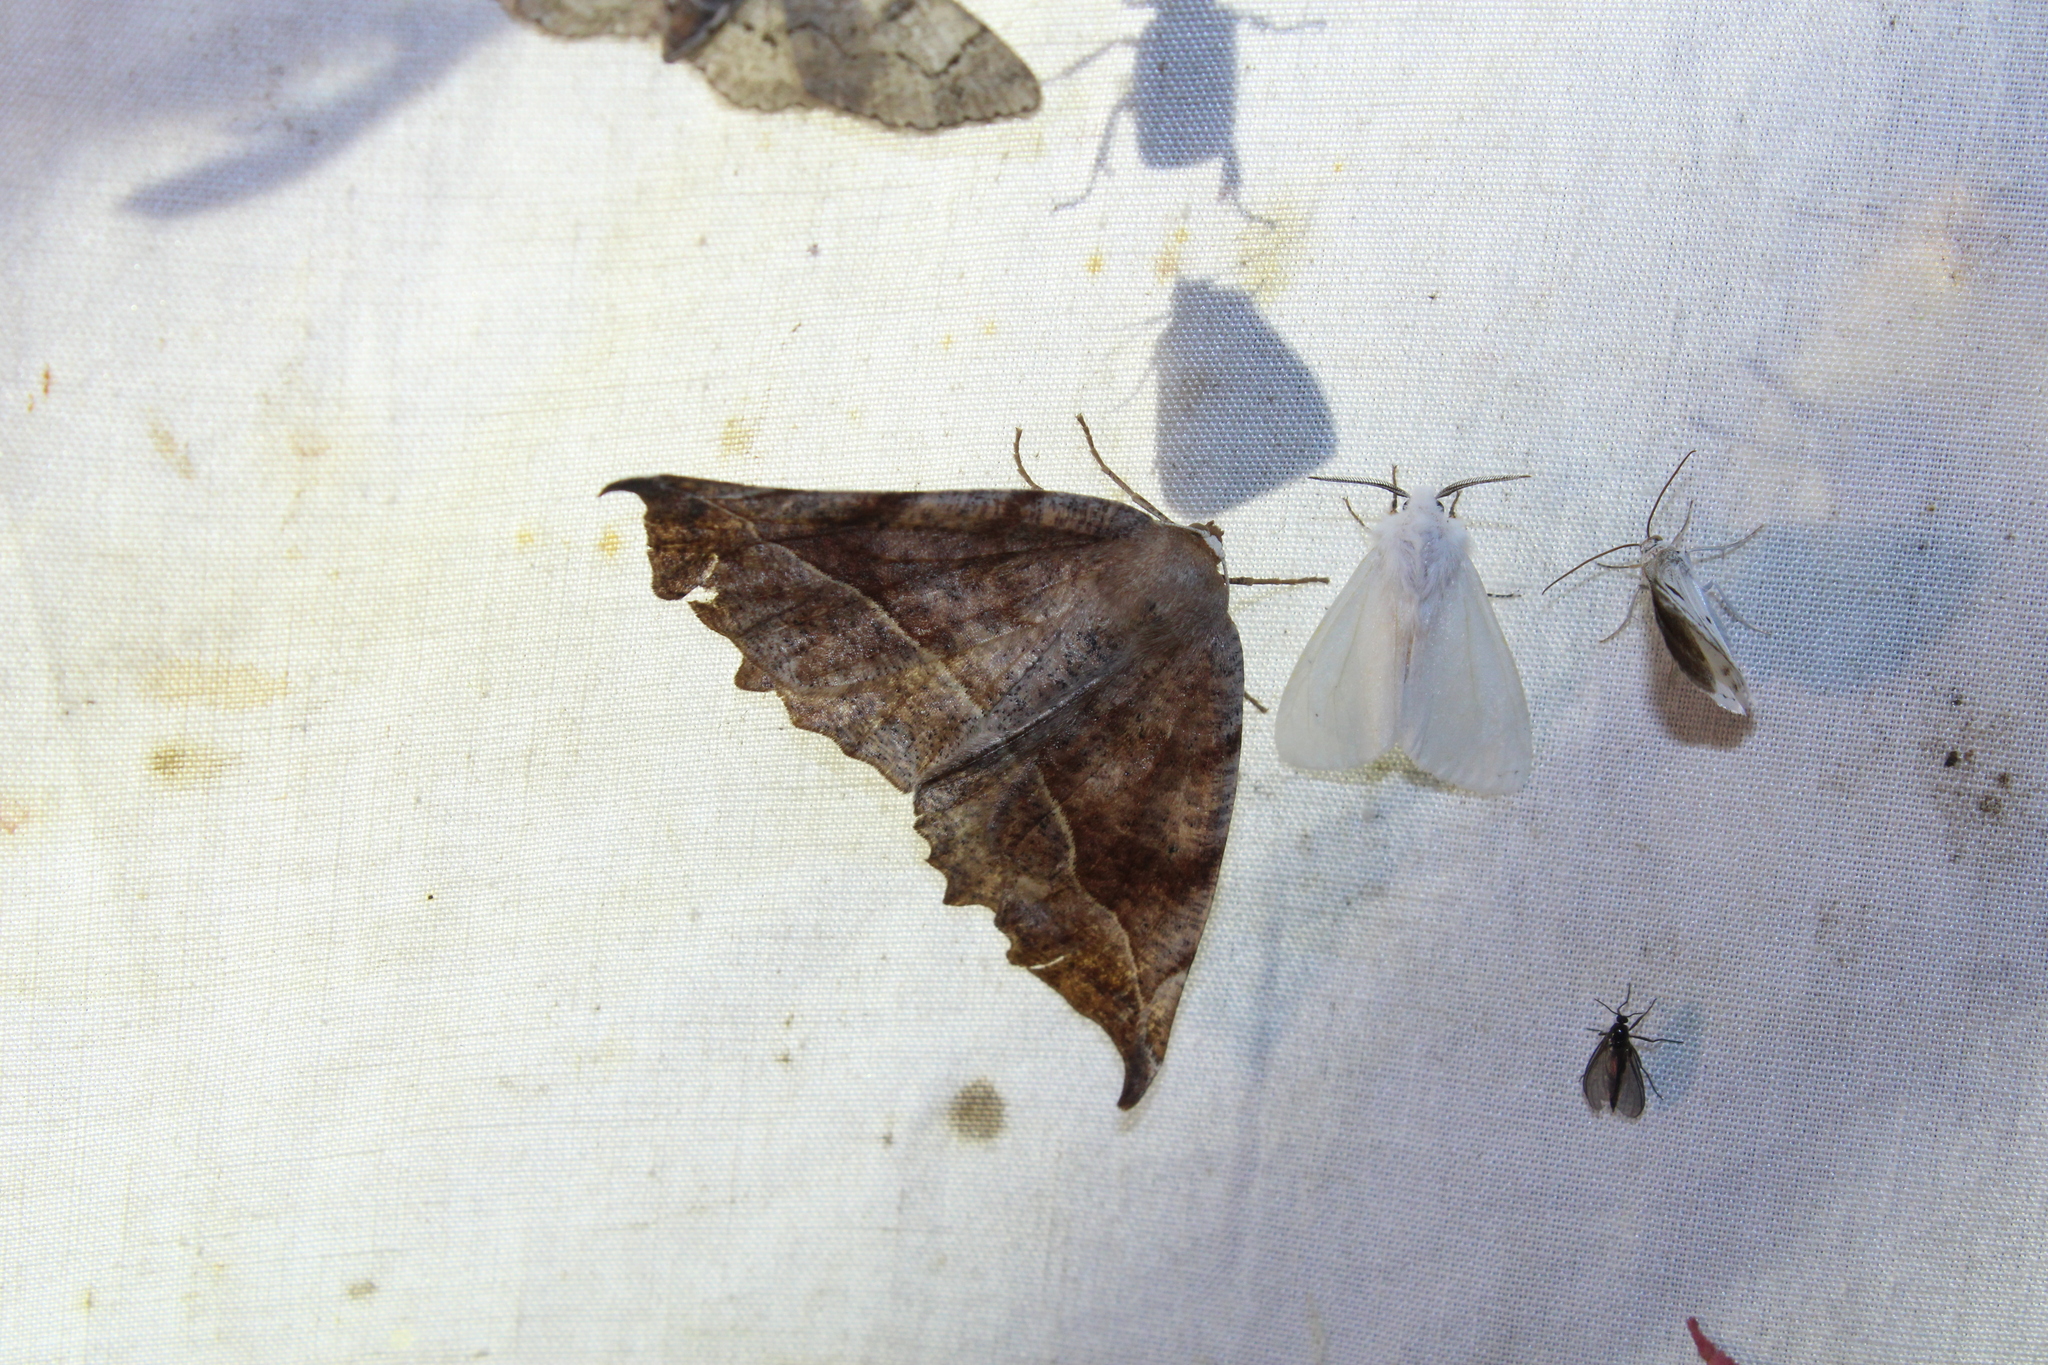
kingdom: Animalia
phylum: Arthropoda
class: Insecta
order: Lepidoptera
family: Geometridae
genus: Eutrapela
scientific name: Eutrapela clemataria
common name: Curved-toothed geometer
